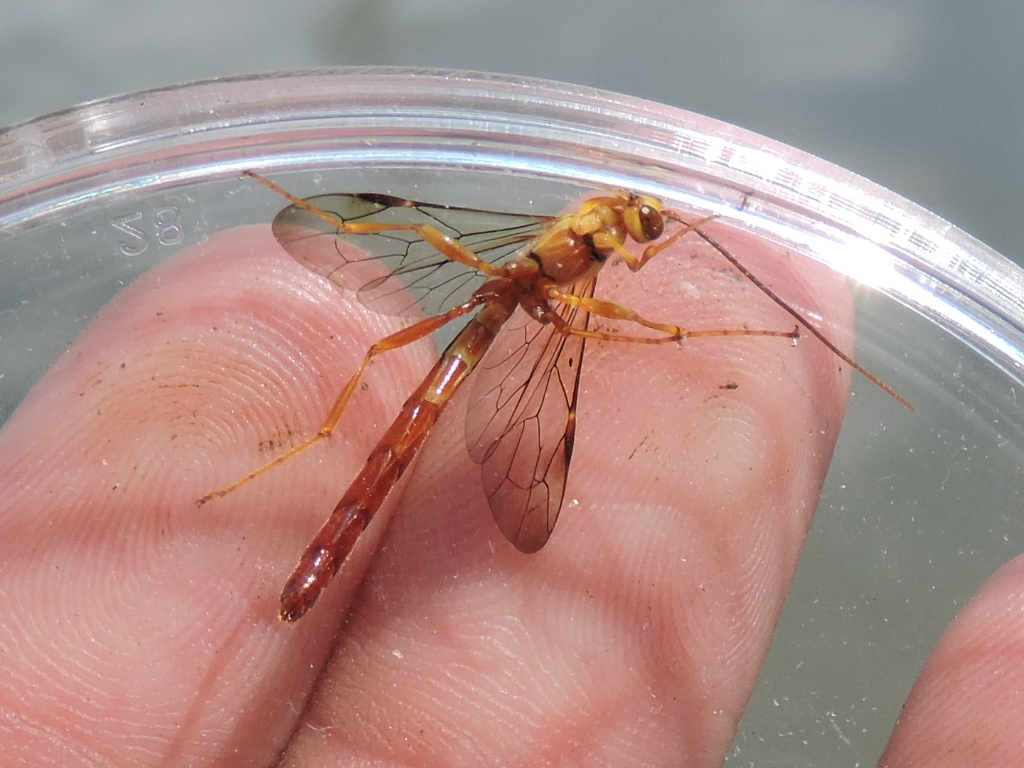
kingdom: Animalia
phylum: Arthropoda
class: Insecta
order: Hymenoptera
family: Ichneumonidae
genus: Megarhyssa
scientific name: Megarhyssa greenei
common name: Greene's giant ichneumonid wasp
